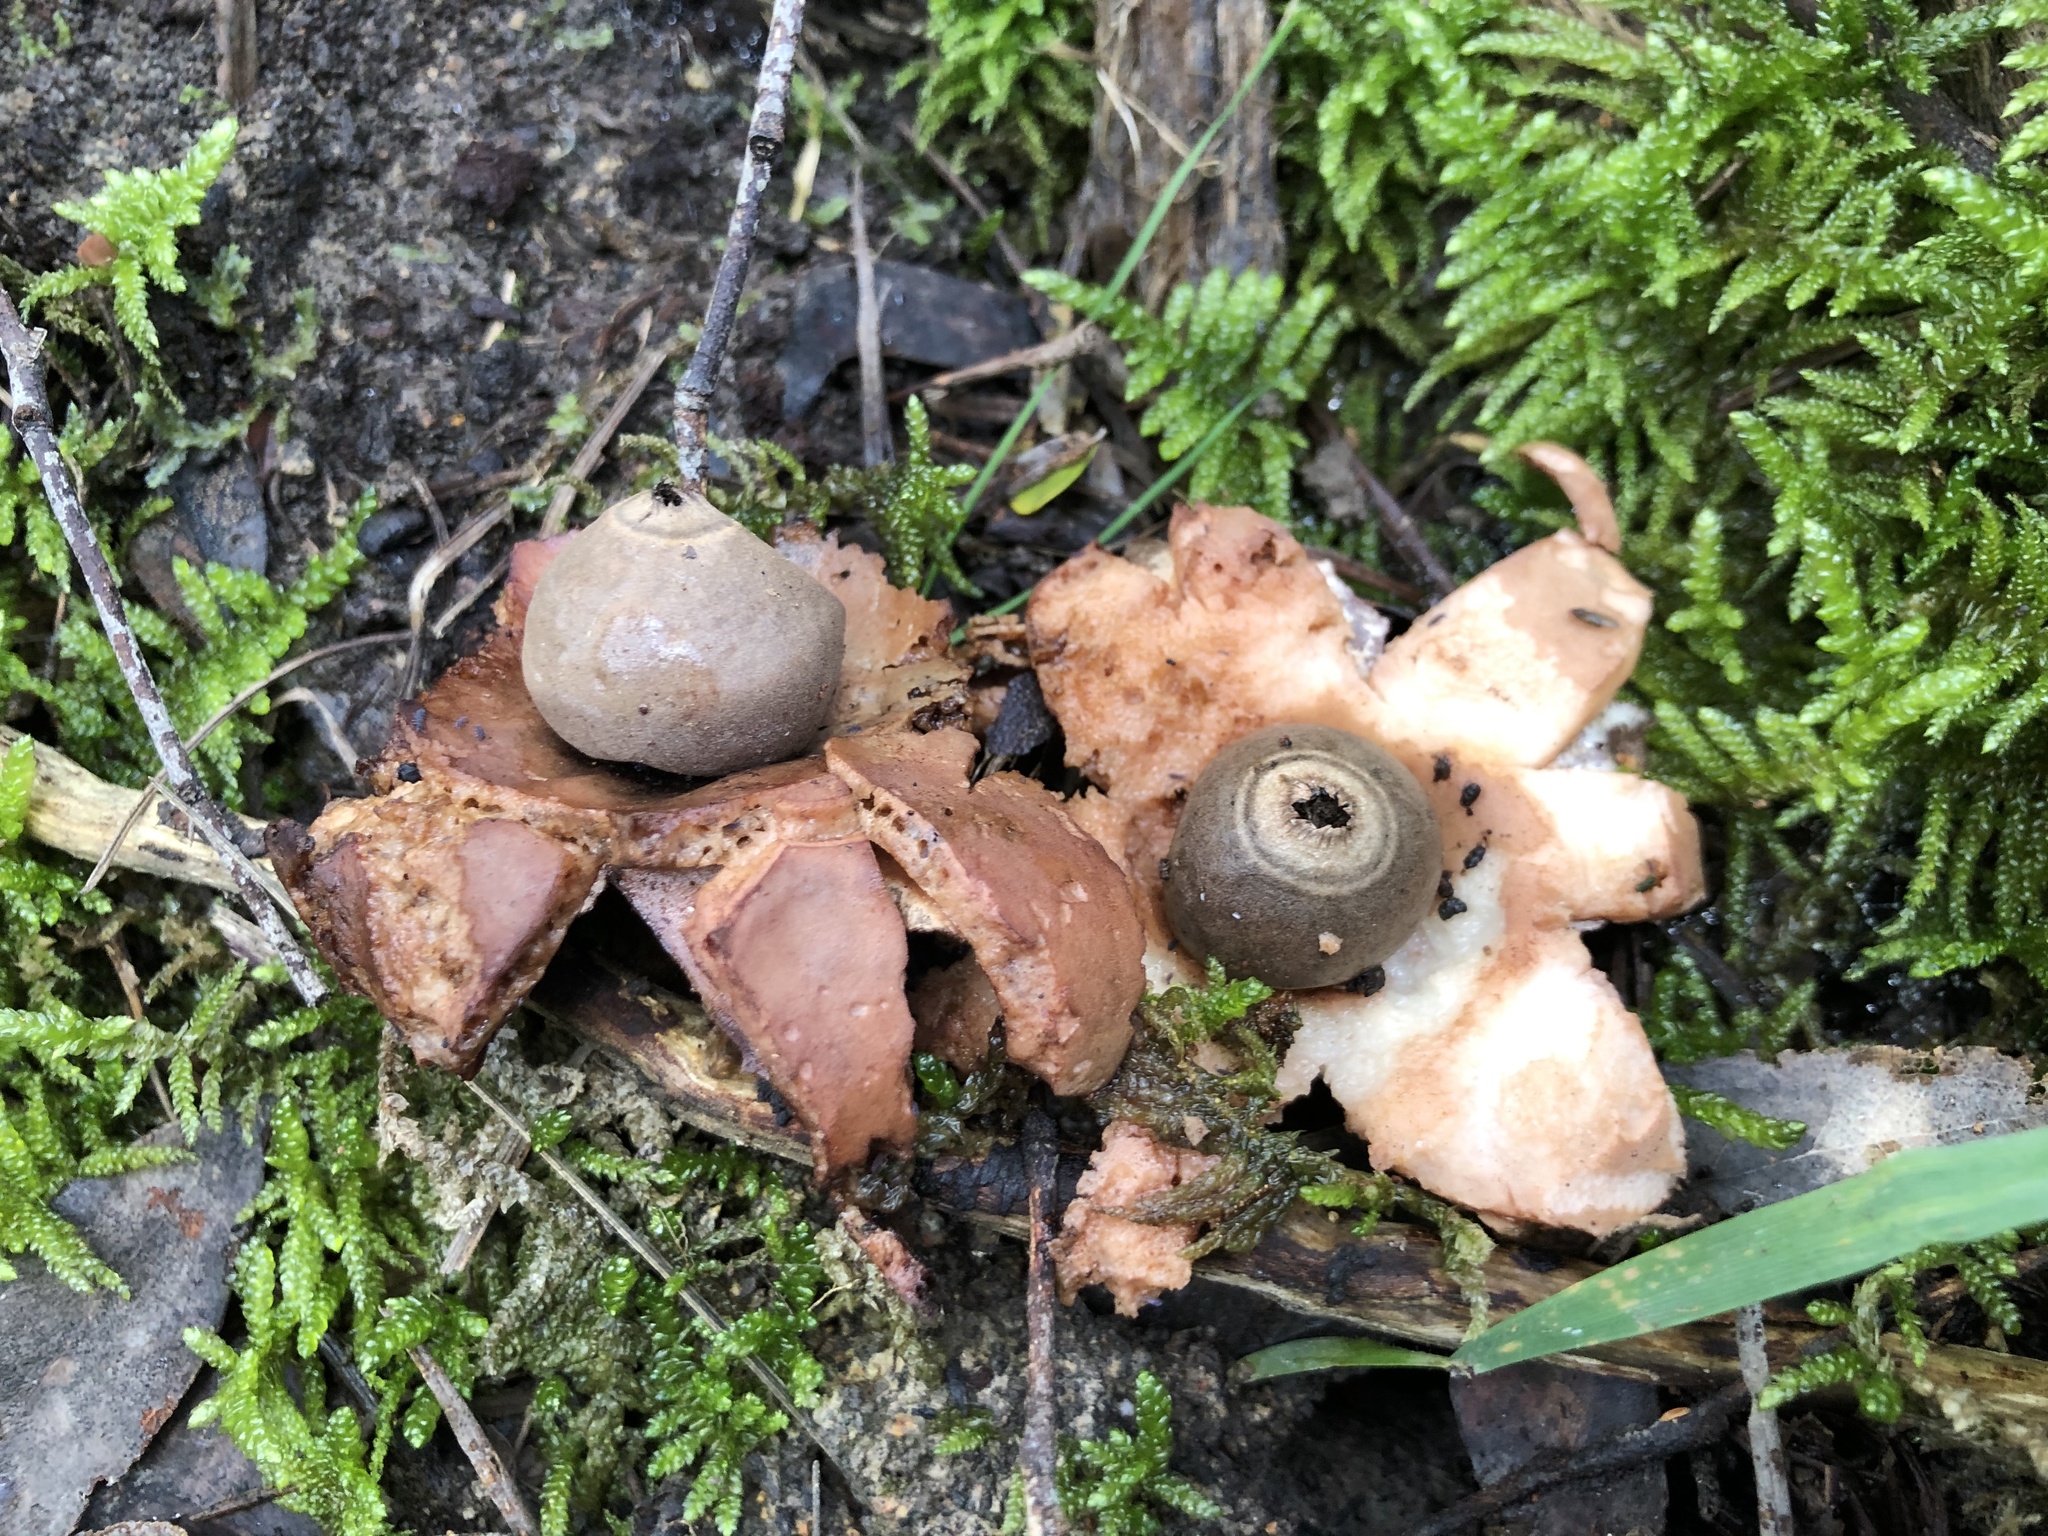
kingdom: Fungi
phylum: Basidiomycota
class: Agaricomycetes
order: Geastrales
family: Geastraceae
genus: Geastrum
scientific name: Geastrum triplex
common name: Collared earthstar
